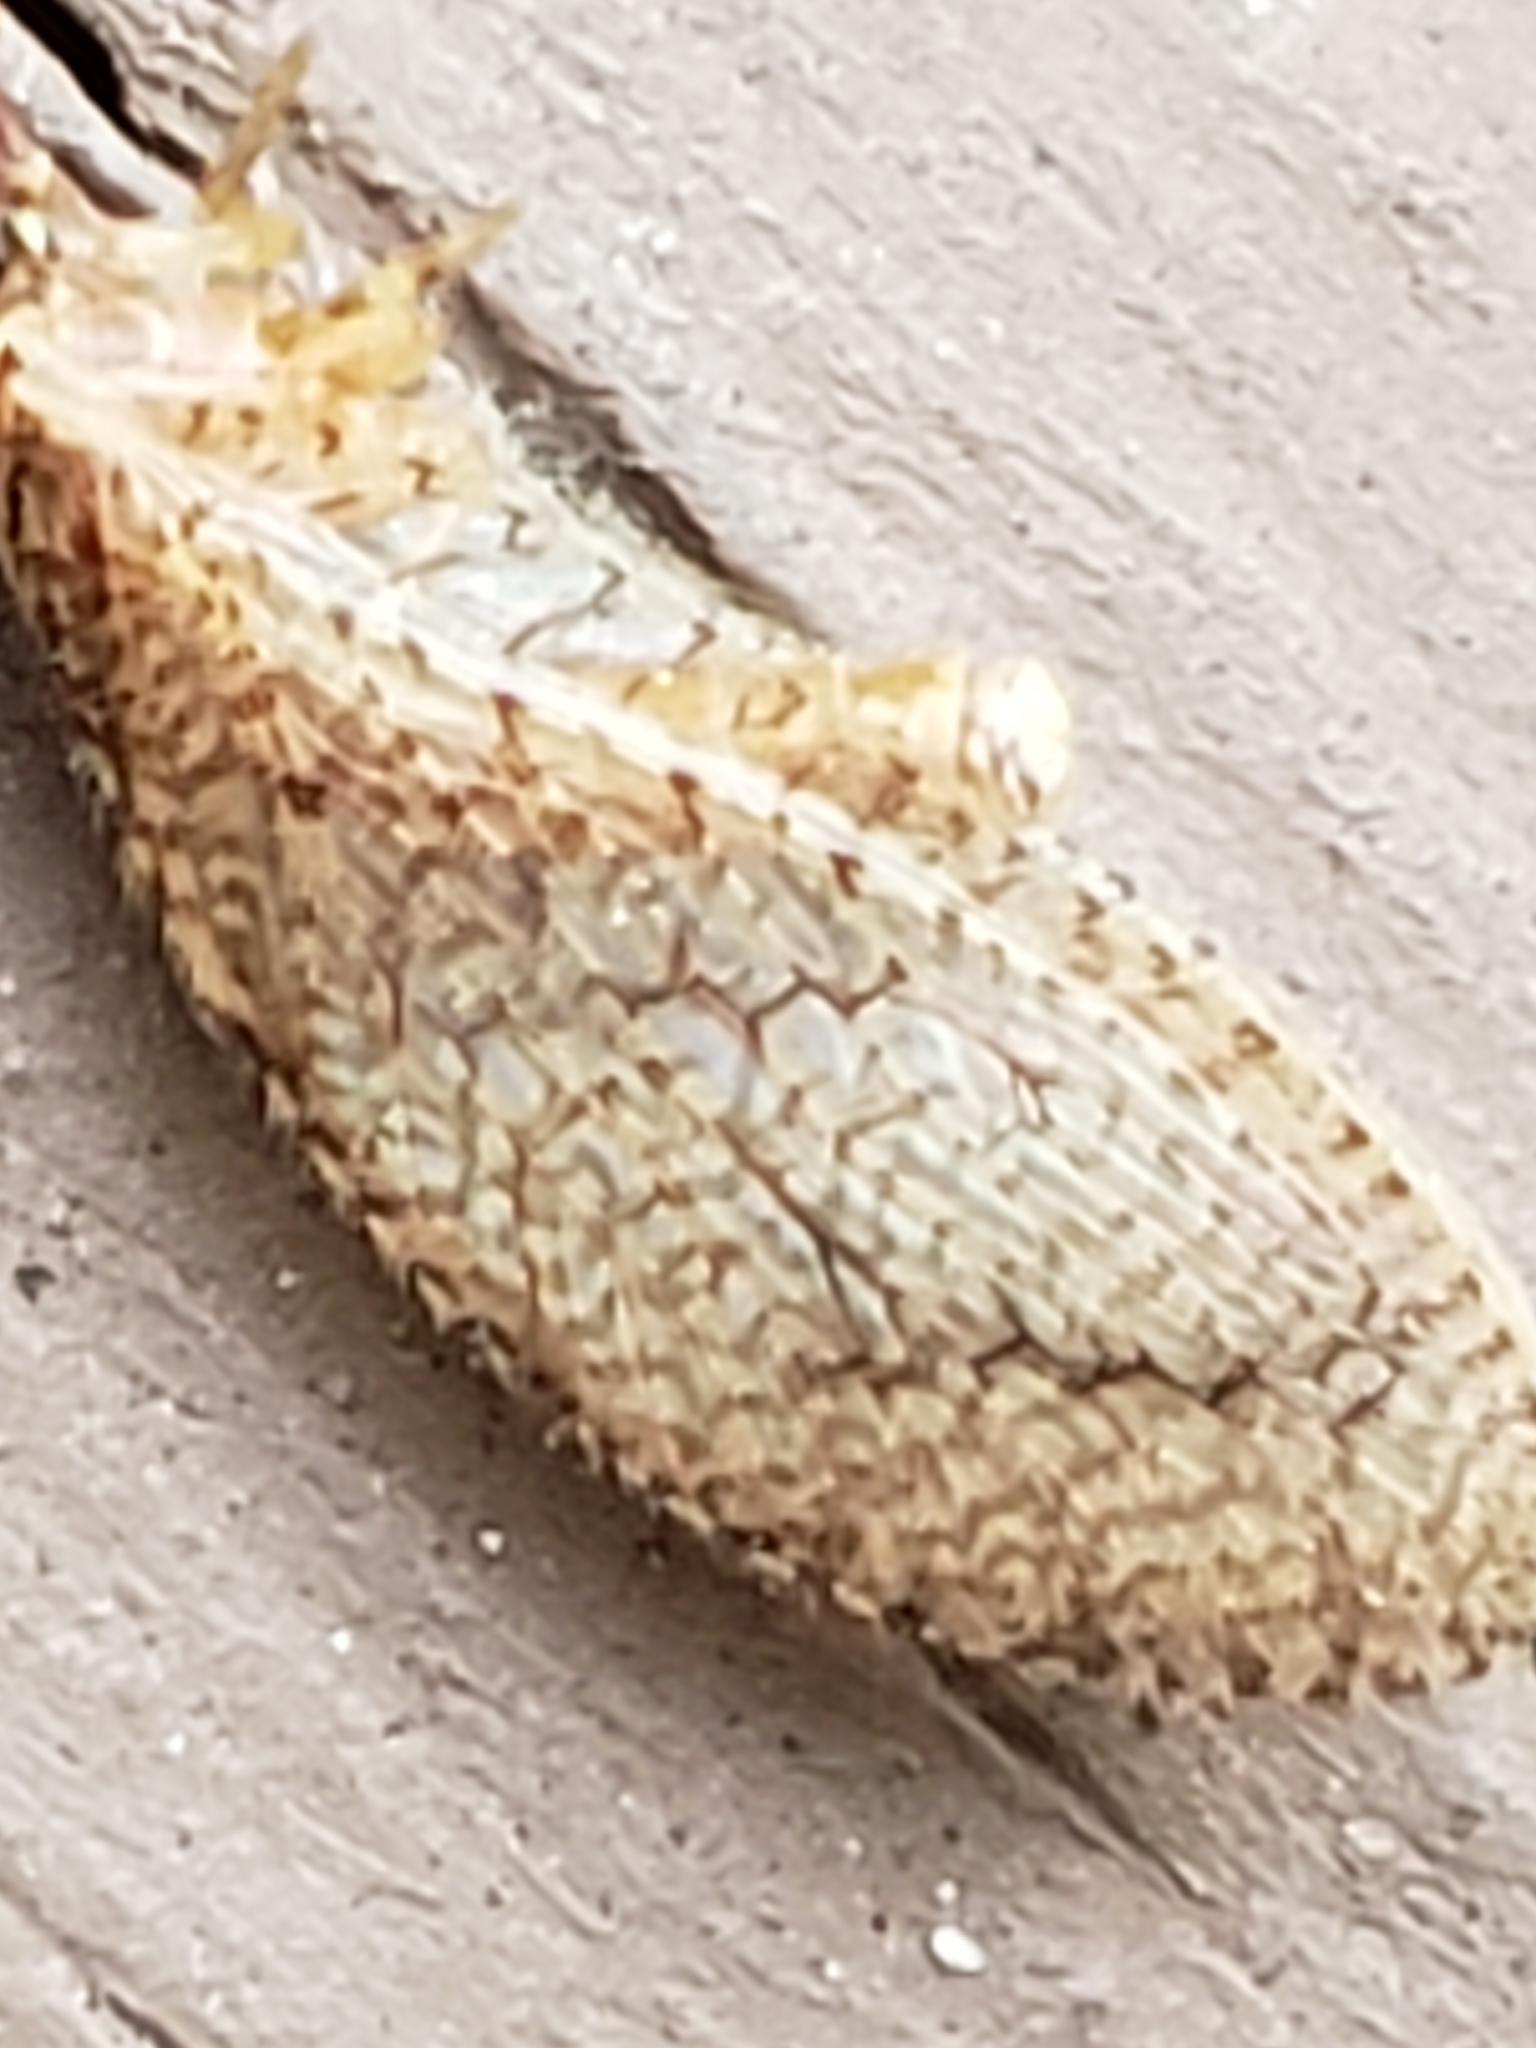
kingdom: Animalia
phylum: Arthropoda
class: Insecta
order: Neuroptera
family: Hemerobiidae
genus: Micromus
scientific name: Micromus posticus
